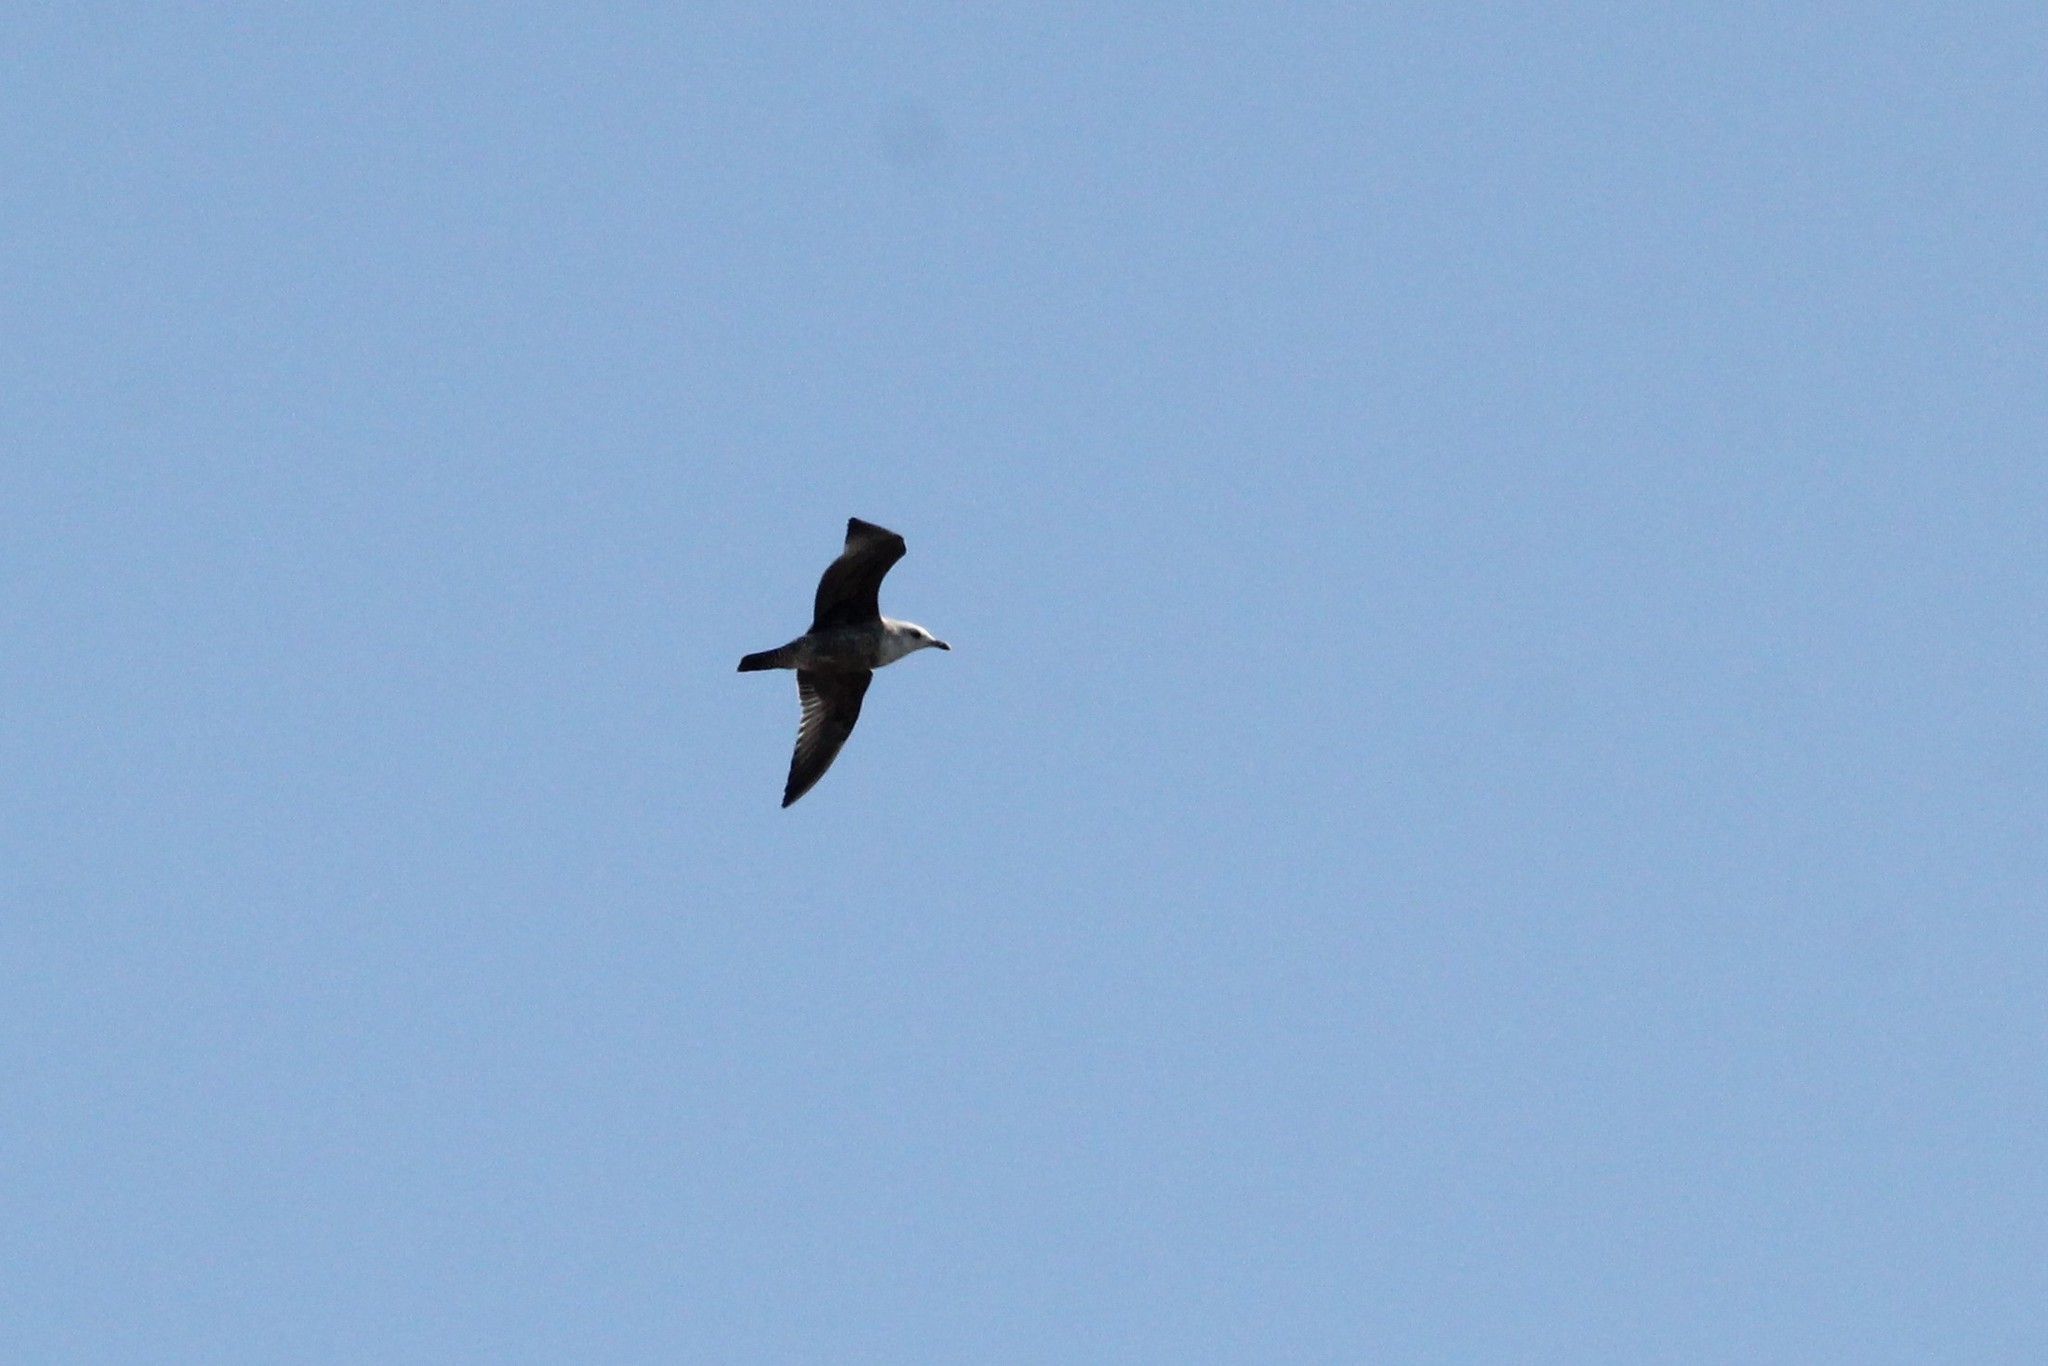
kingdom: Animalia
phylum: Chordata
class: Aves
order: Charadriiformes
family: Laridae
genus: Larus
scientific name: Larus smithsonianus
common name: American herring gull
